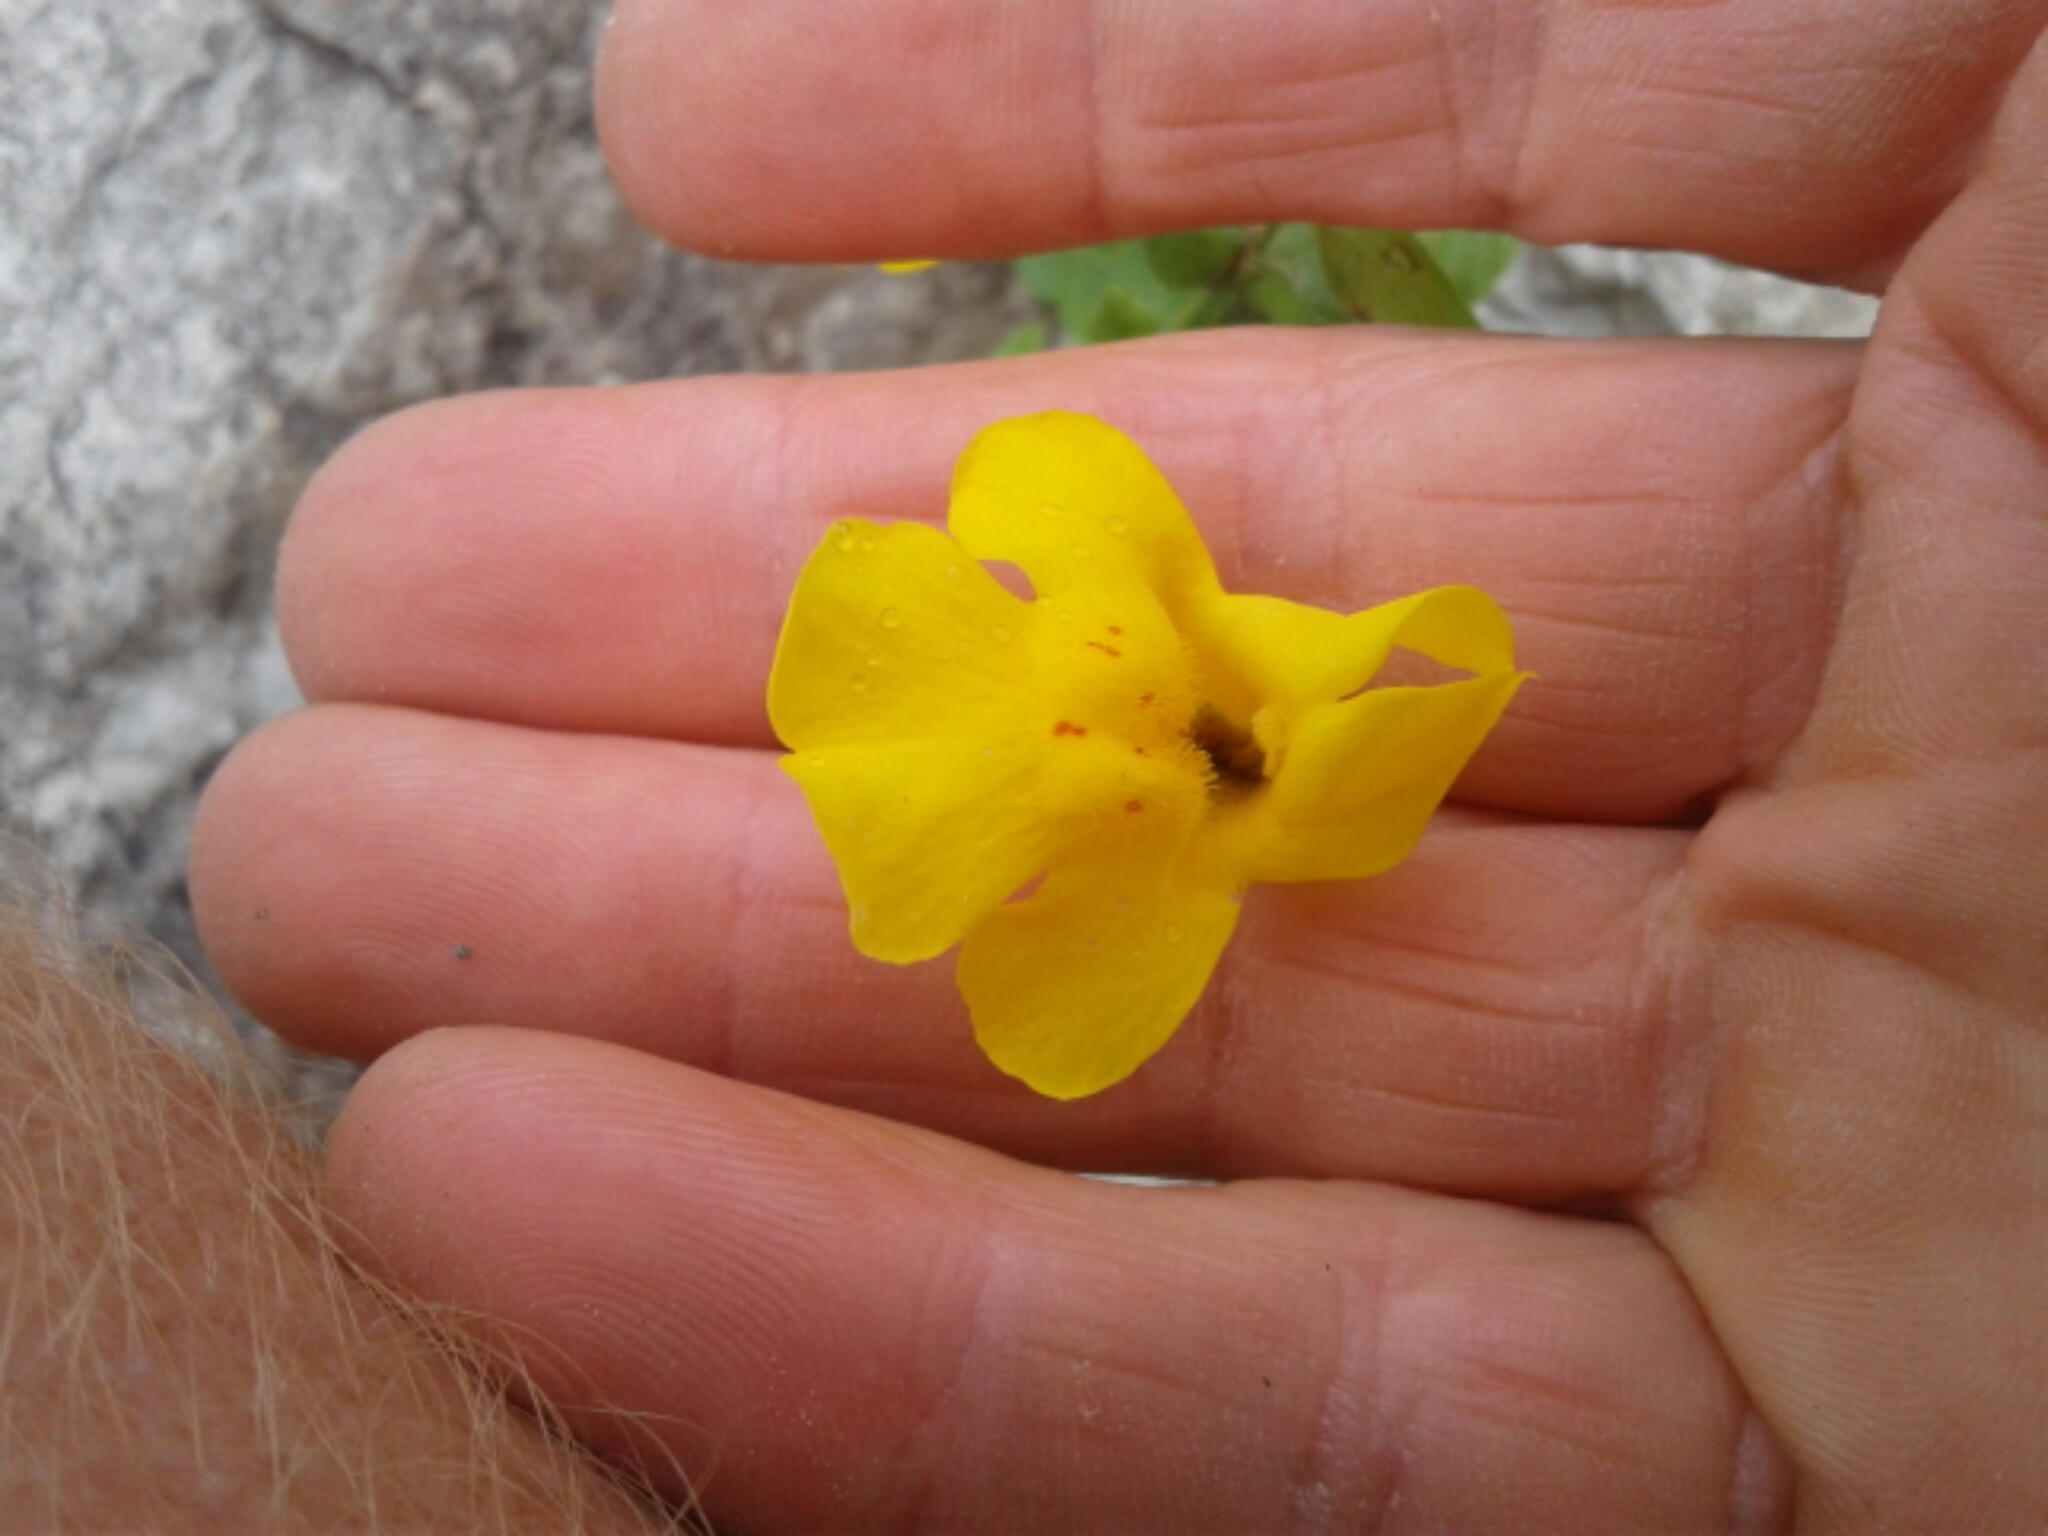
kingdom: Plantae
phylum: Tracheophyta
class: Magnoliopsida
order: Lamiales
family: Phrymaceae
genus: Erythranthe
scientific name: Erythranthe guttata
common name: Monkeyflower
